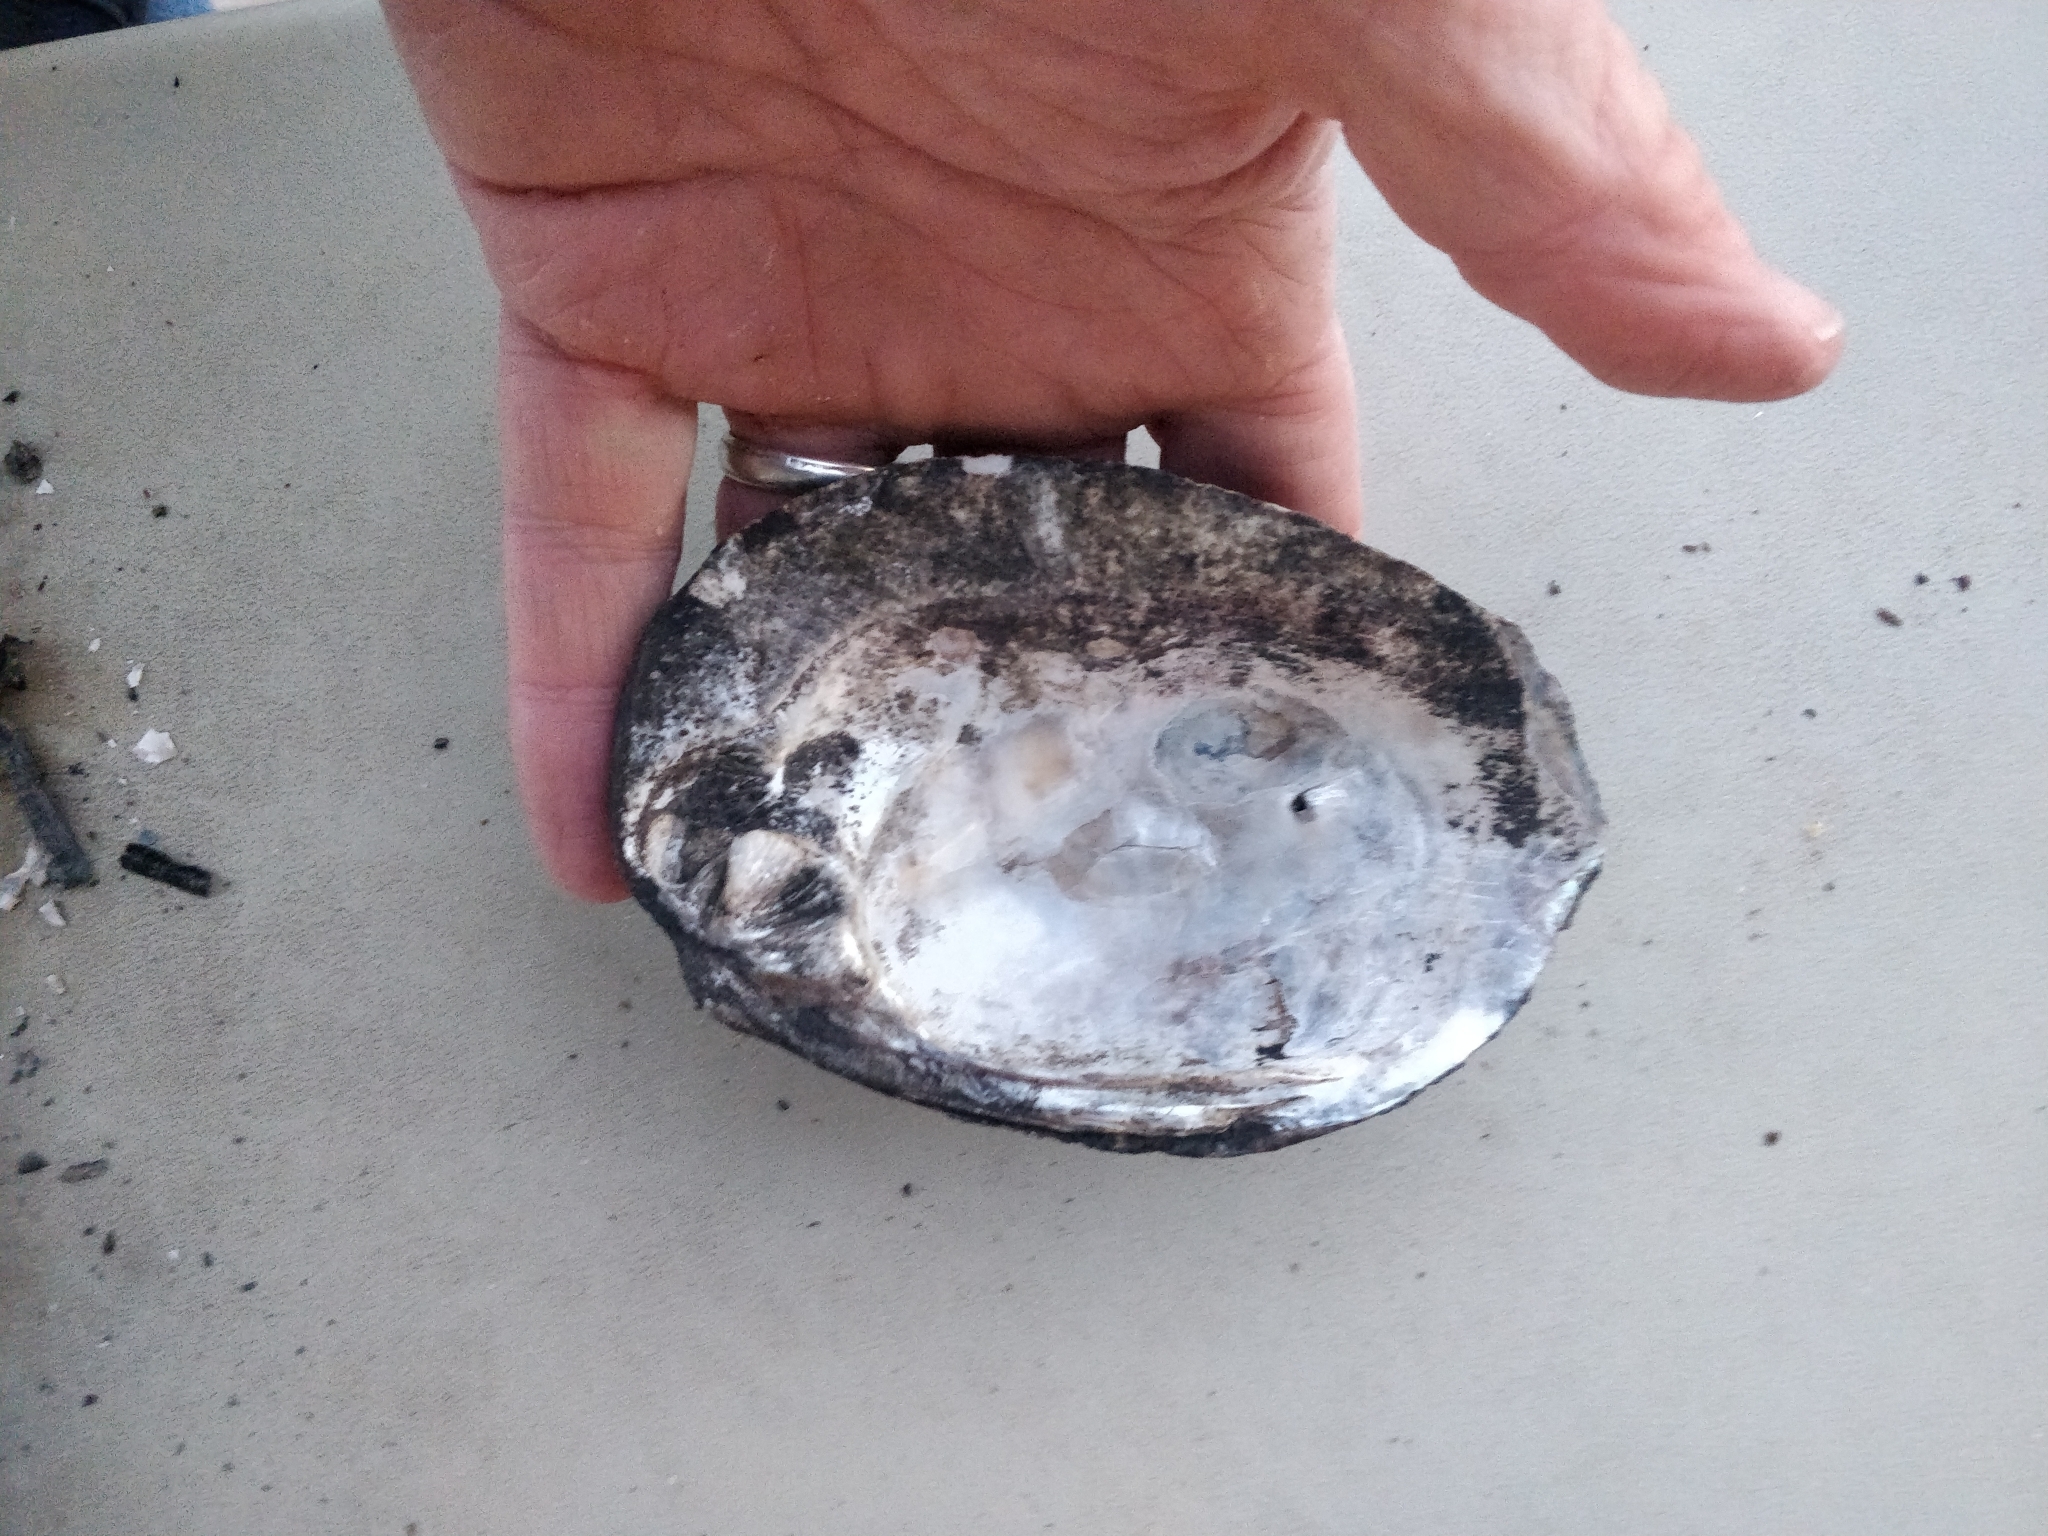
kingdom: Animalia
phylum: Mollusca
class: Bivalvia
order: Unionida
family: Unionidae
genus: Amblema
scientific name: Amblema plicata
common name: Threeridge
